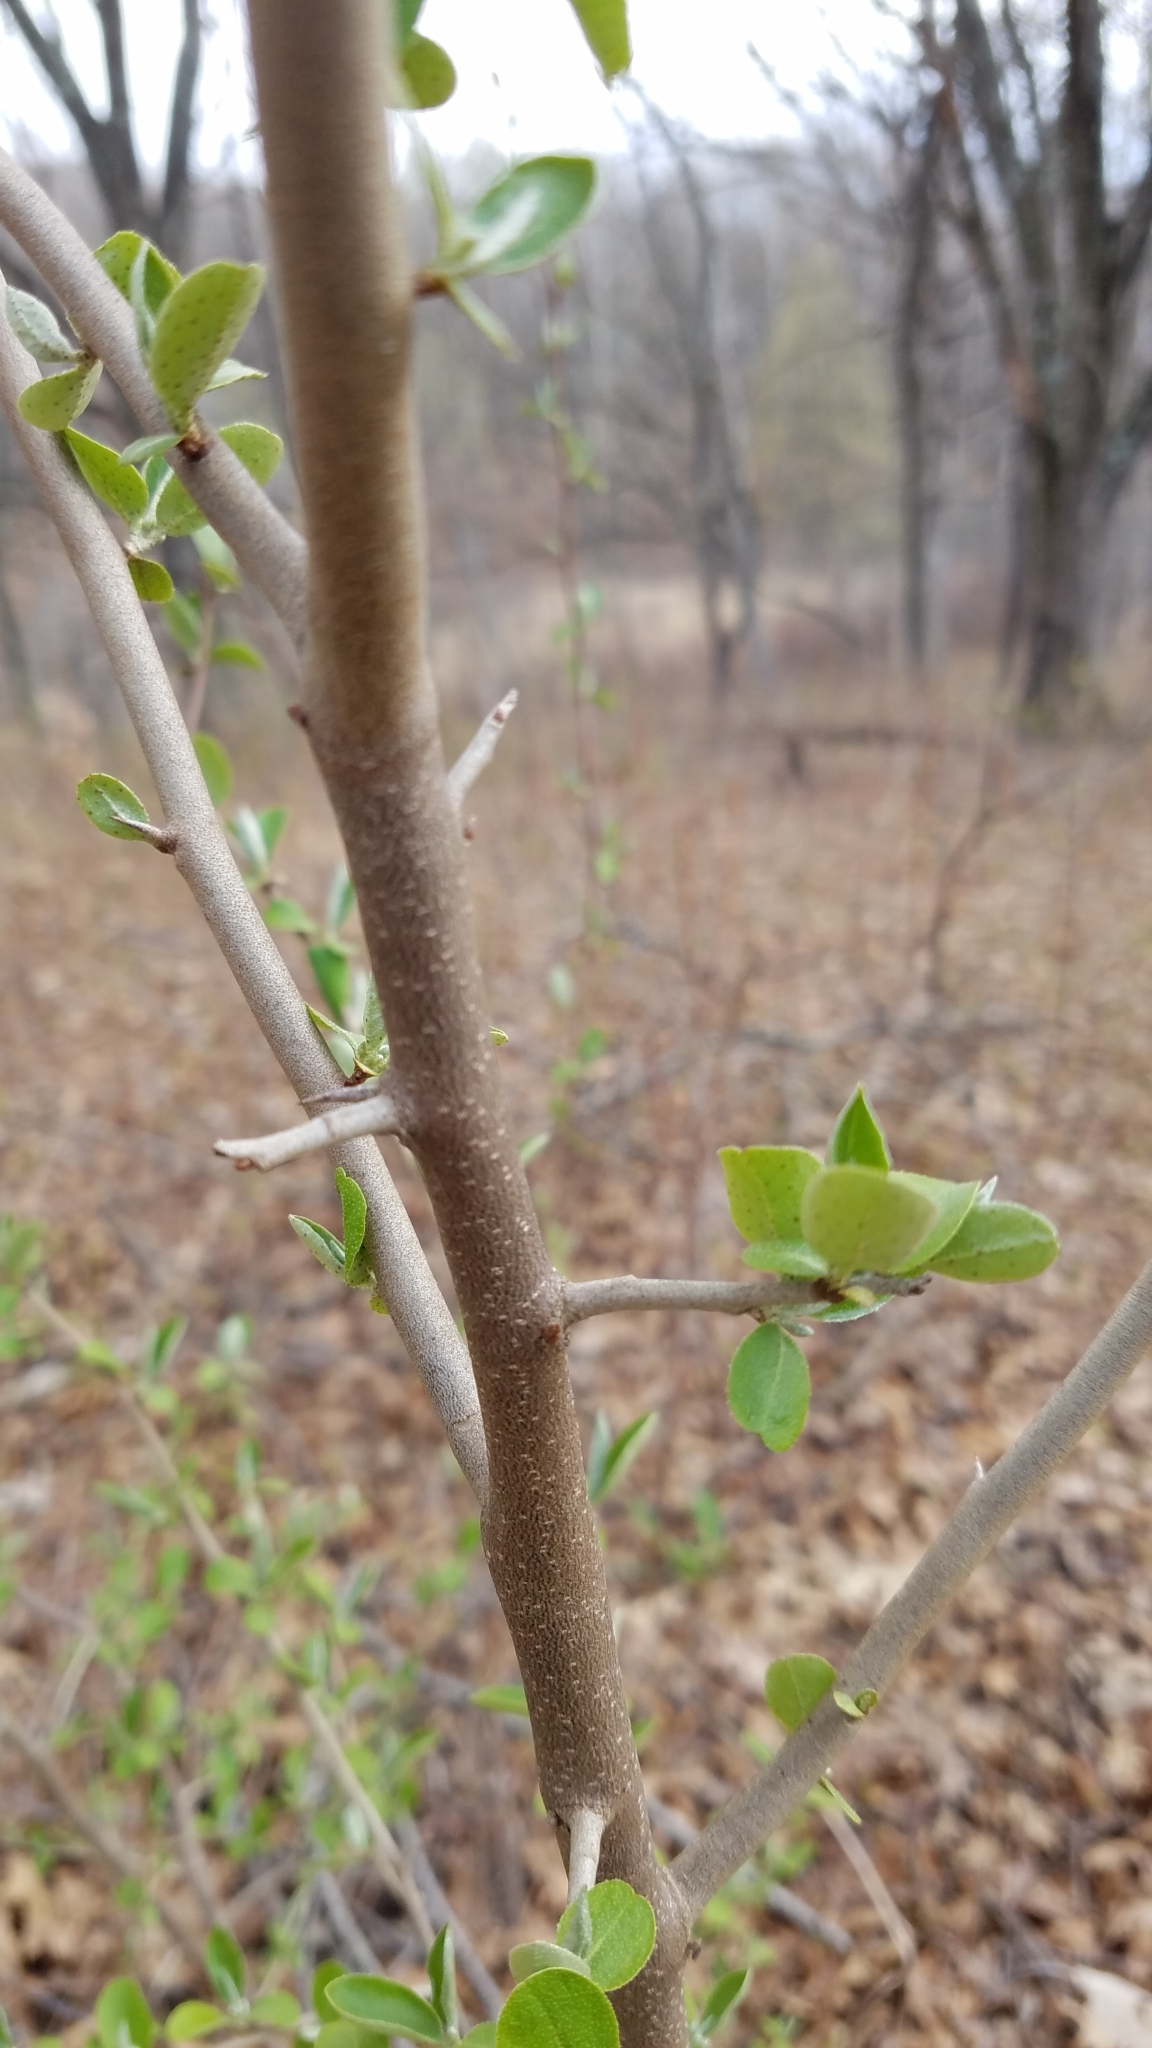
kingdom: Plantae
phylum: Tracheophyta
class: Magnoliopsida
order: Dipsacales
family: Caprifoliaceae
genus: Lonicera
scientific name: Lonicera morrowii
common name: Morrow's honeysuckle
